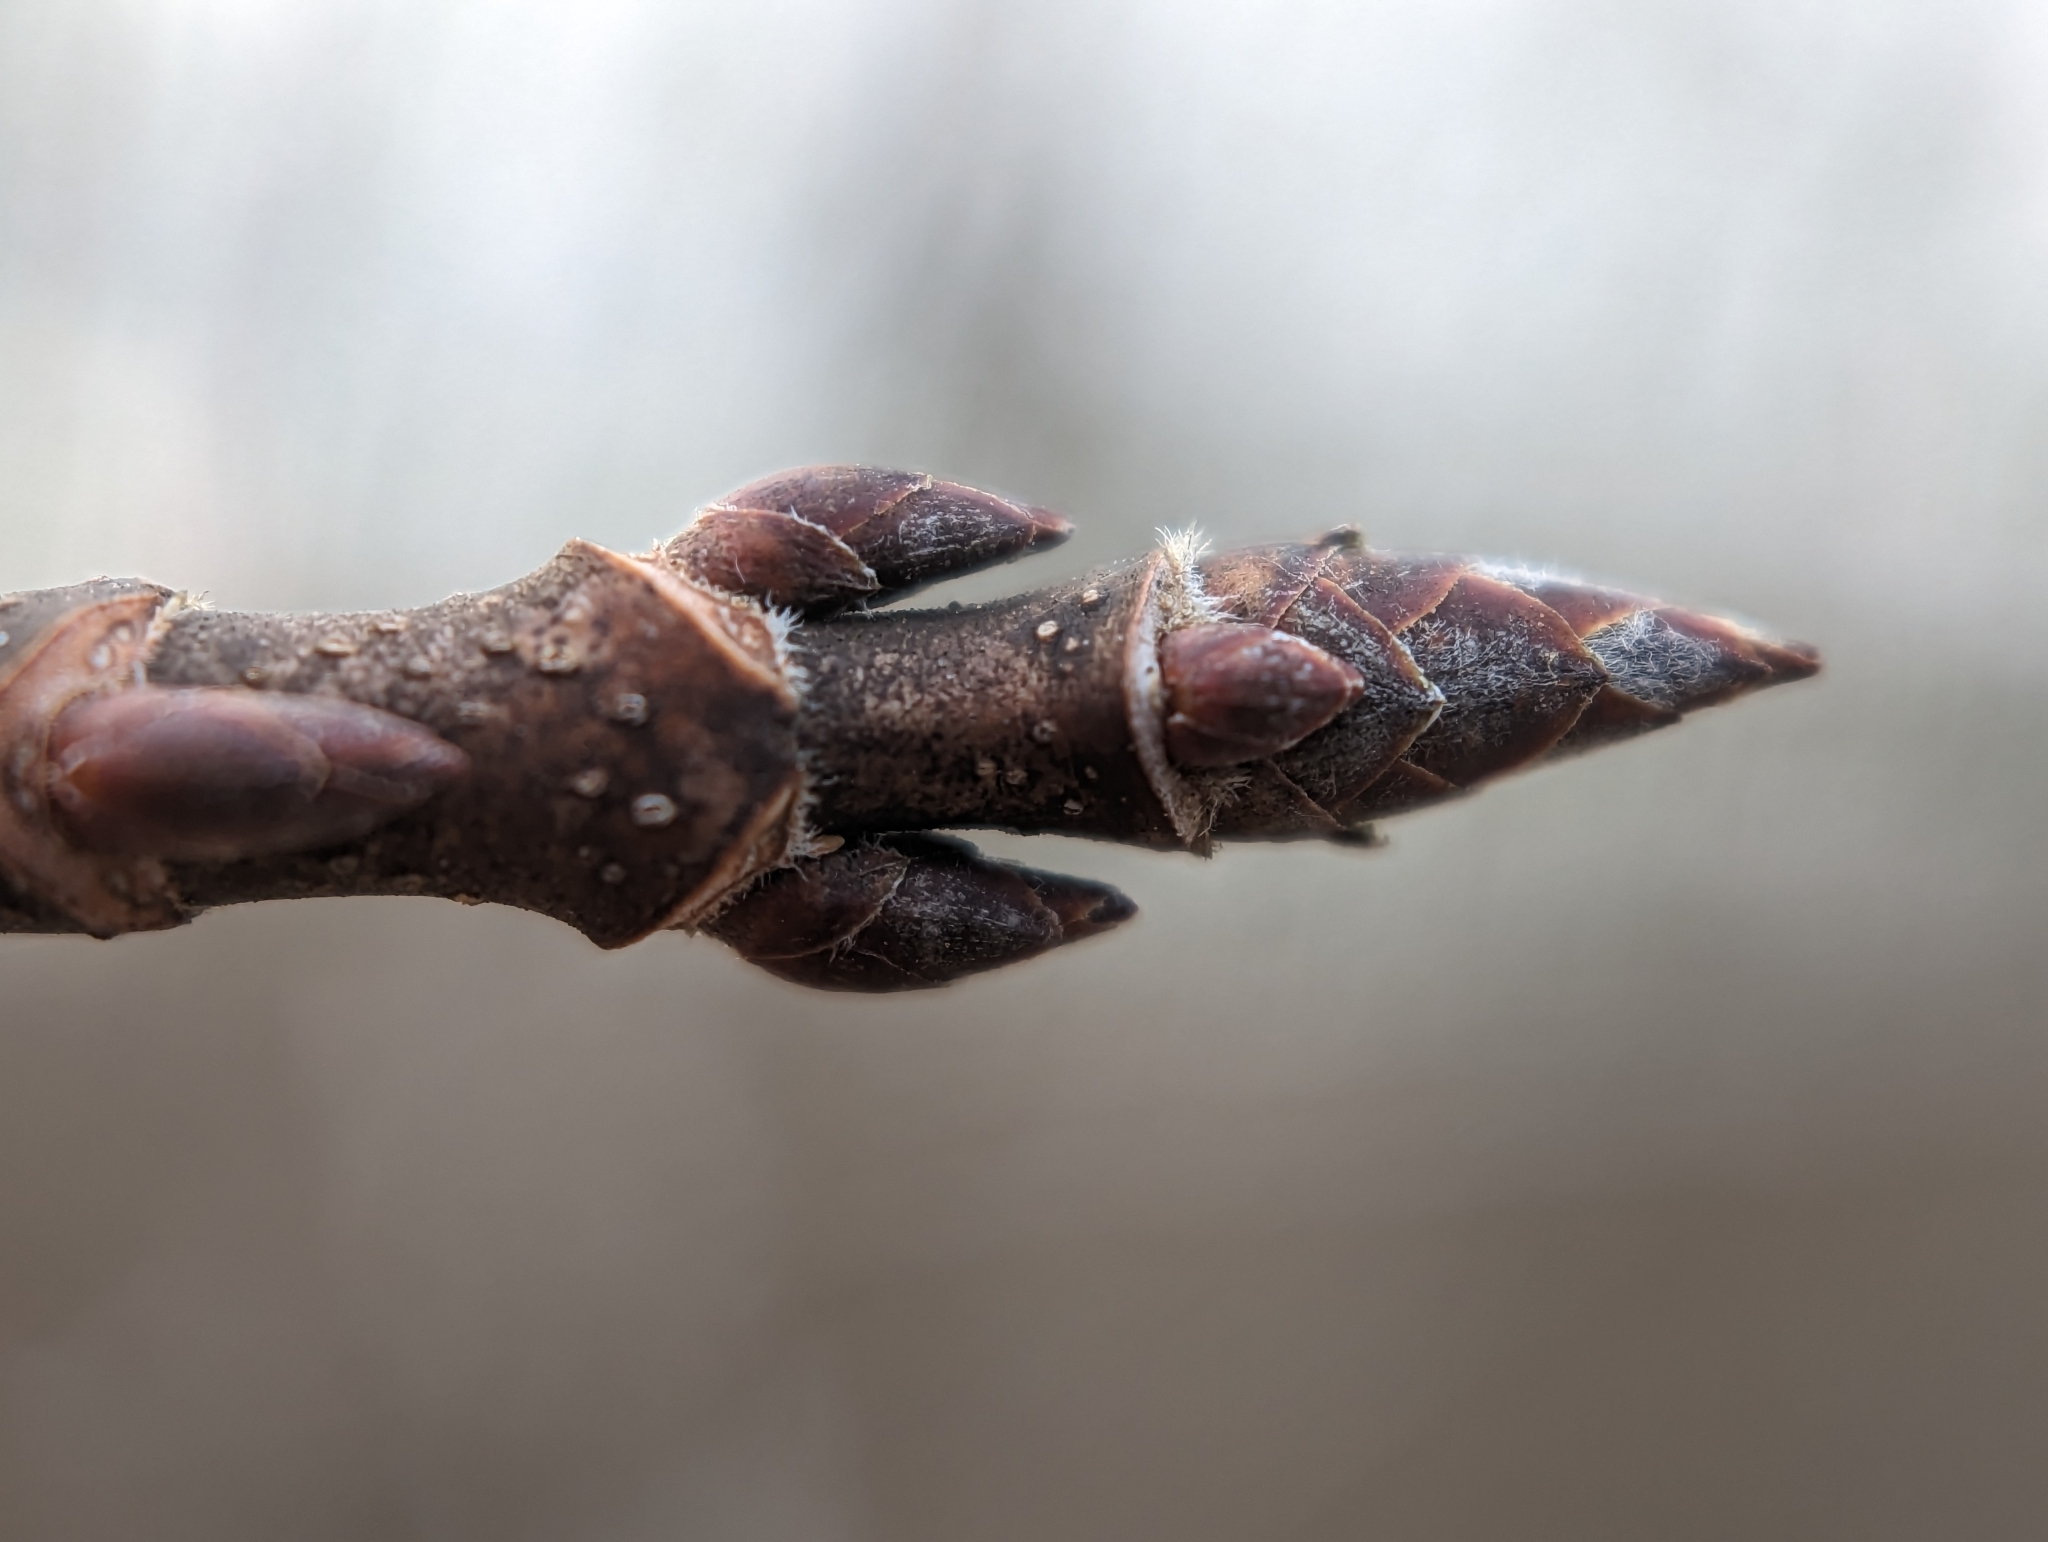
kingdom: Plantae
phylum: Tracheophyta
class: Magnoliopsida
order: Sapindales
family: Sapindaceae
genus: Acer
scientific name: Acer saccharum
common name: Sugar maple
